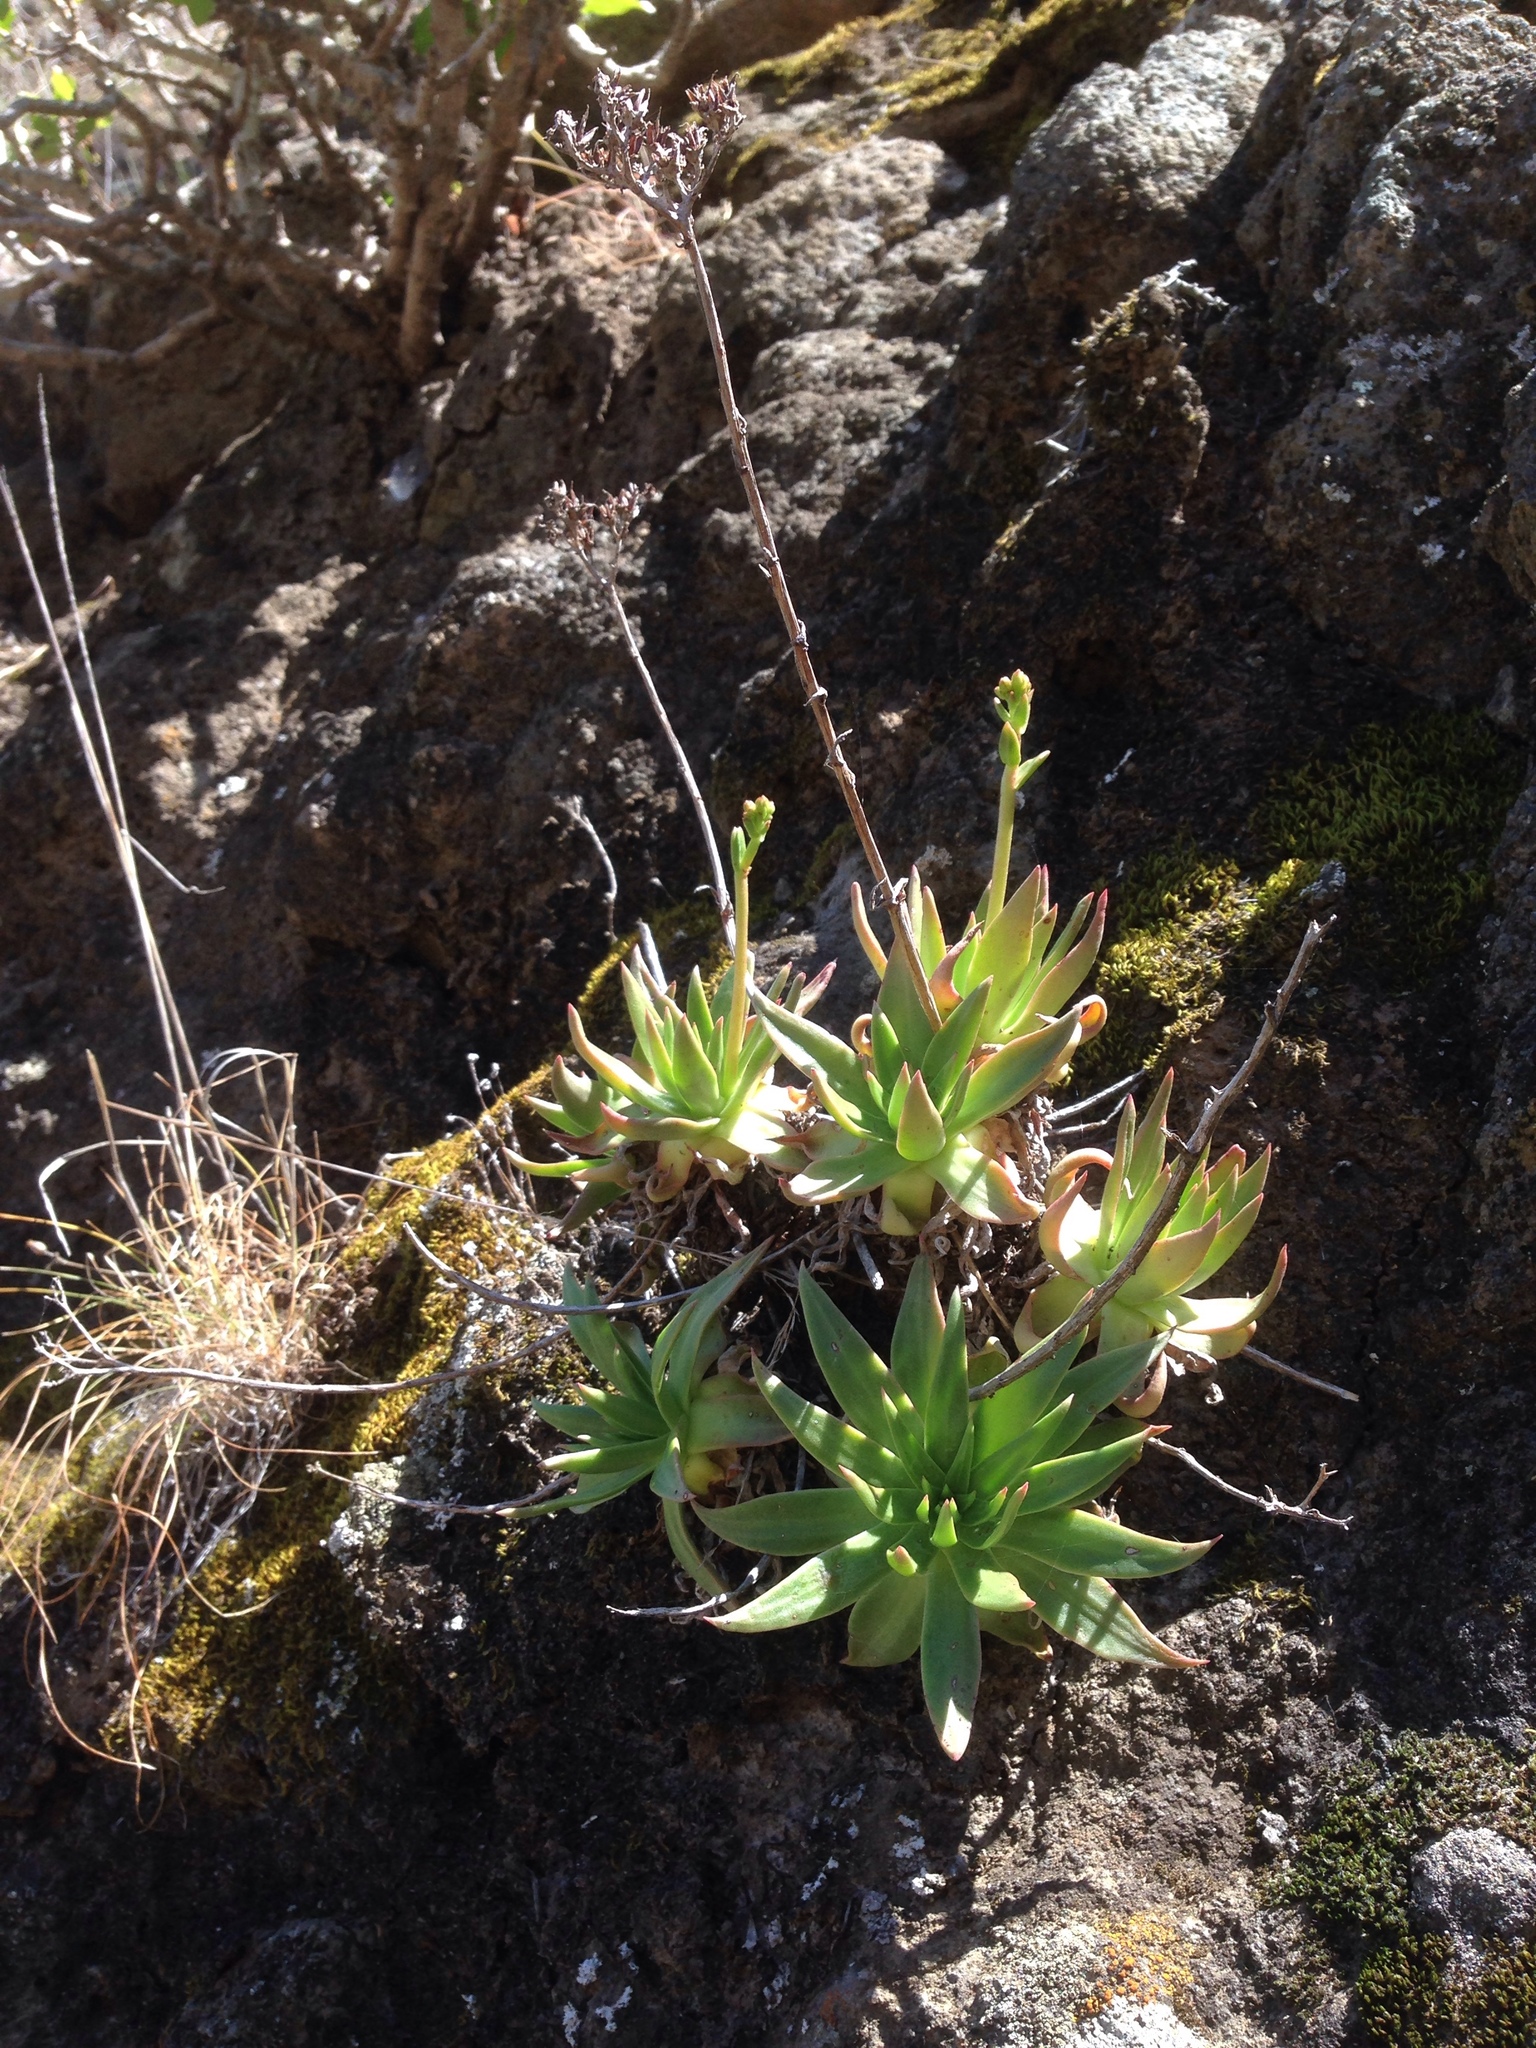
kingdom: Plantae
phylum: Tracheophyta
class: Magnoliopsida
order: Saxifragales
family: Crassulaceae
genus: Dudleya
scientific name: Dudleya virens
